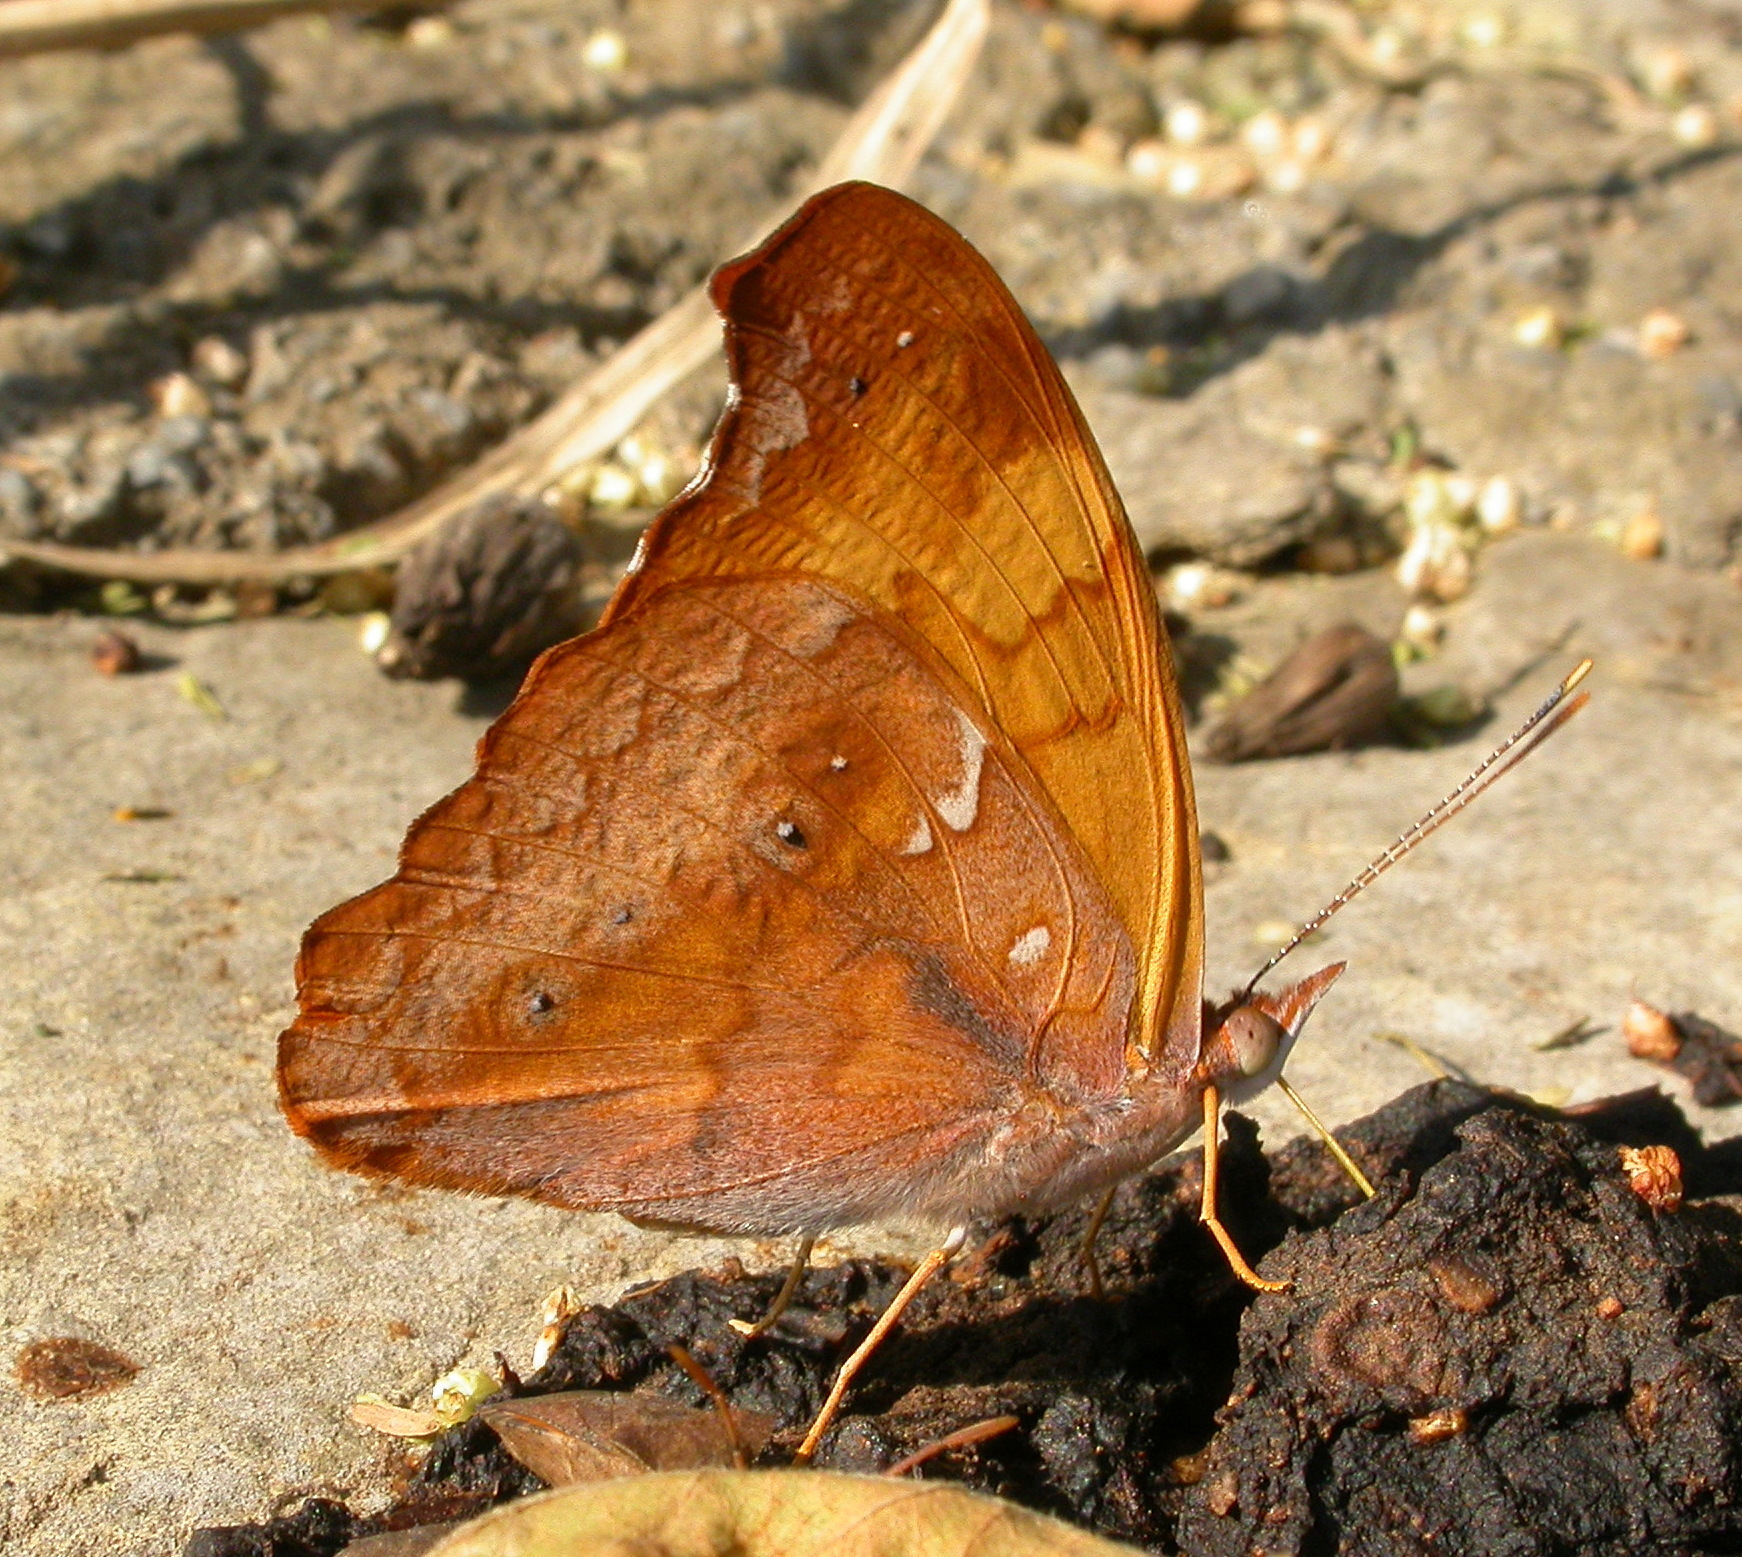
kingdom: Animalia
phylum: Arthropoda
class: Insecta
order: Lepidoptera
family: Nymphalidae
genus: Temenis
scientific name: Temenis laothoe
